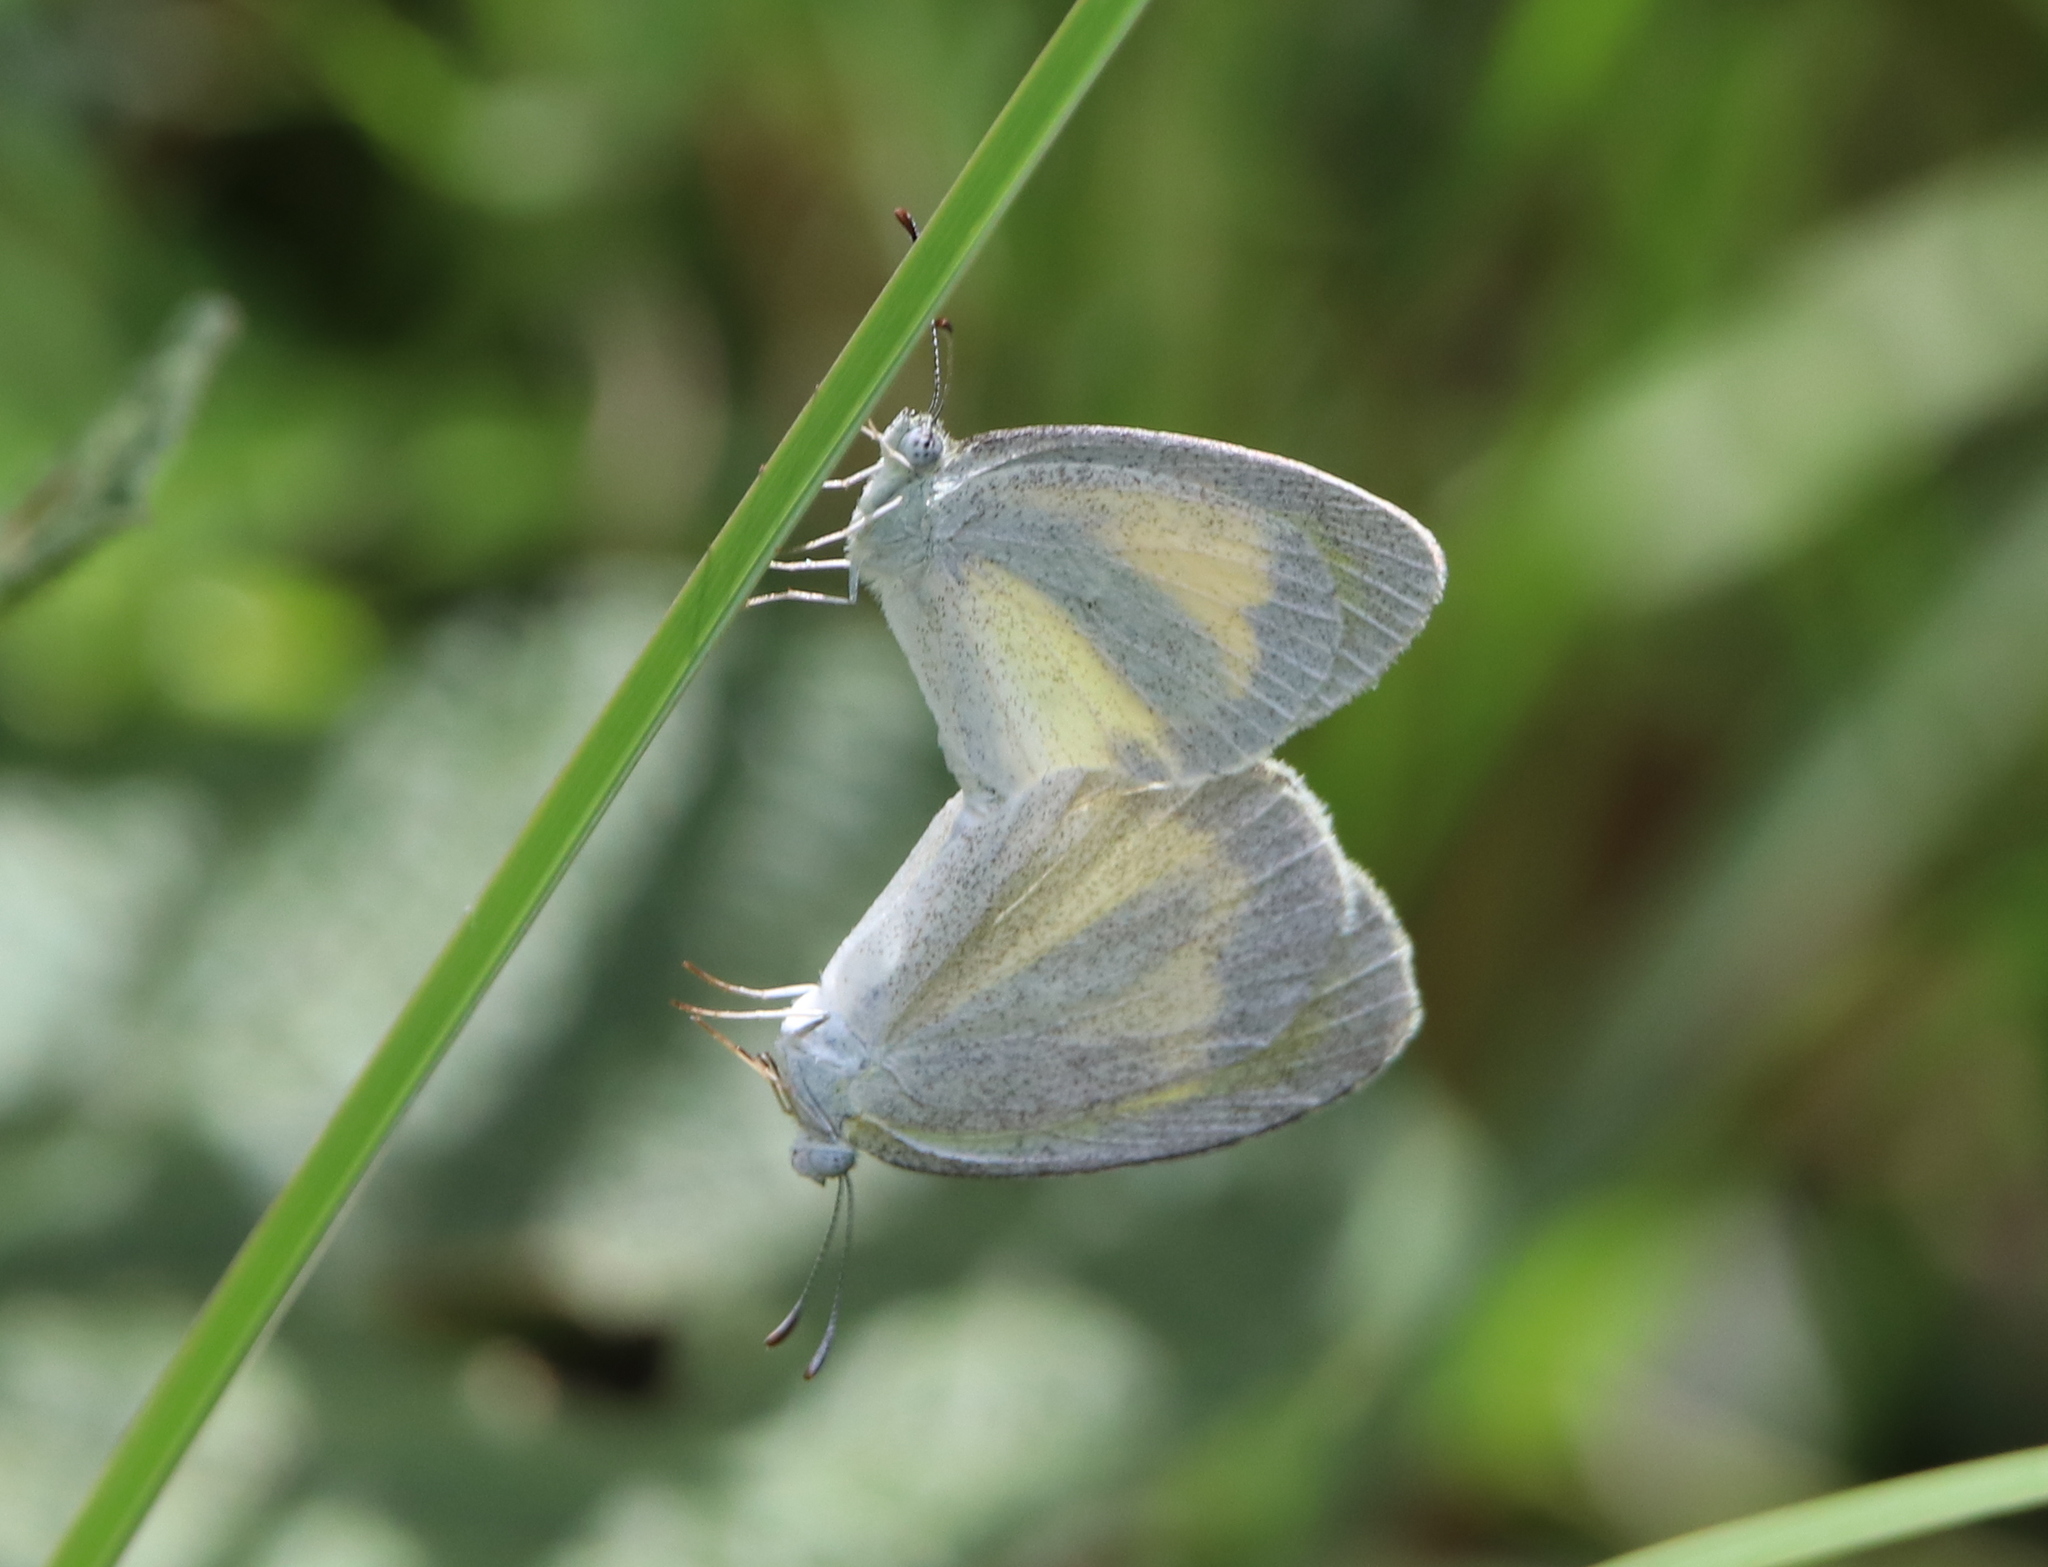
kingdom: Animalia
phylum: Arthropoda
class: Insecta
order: Lepidoptera
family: Pieridae
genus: Eurema
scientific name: Eurema daira
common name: Barred sulphur
